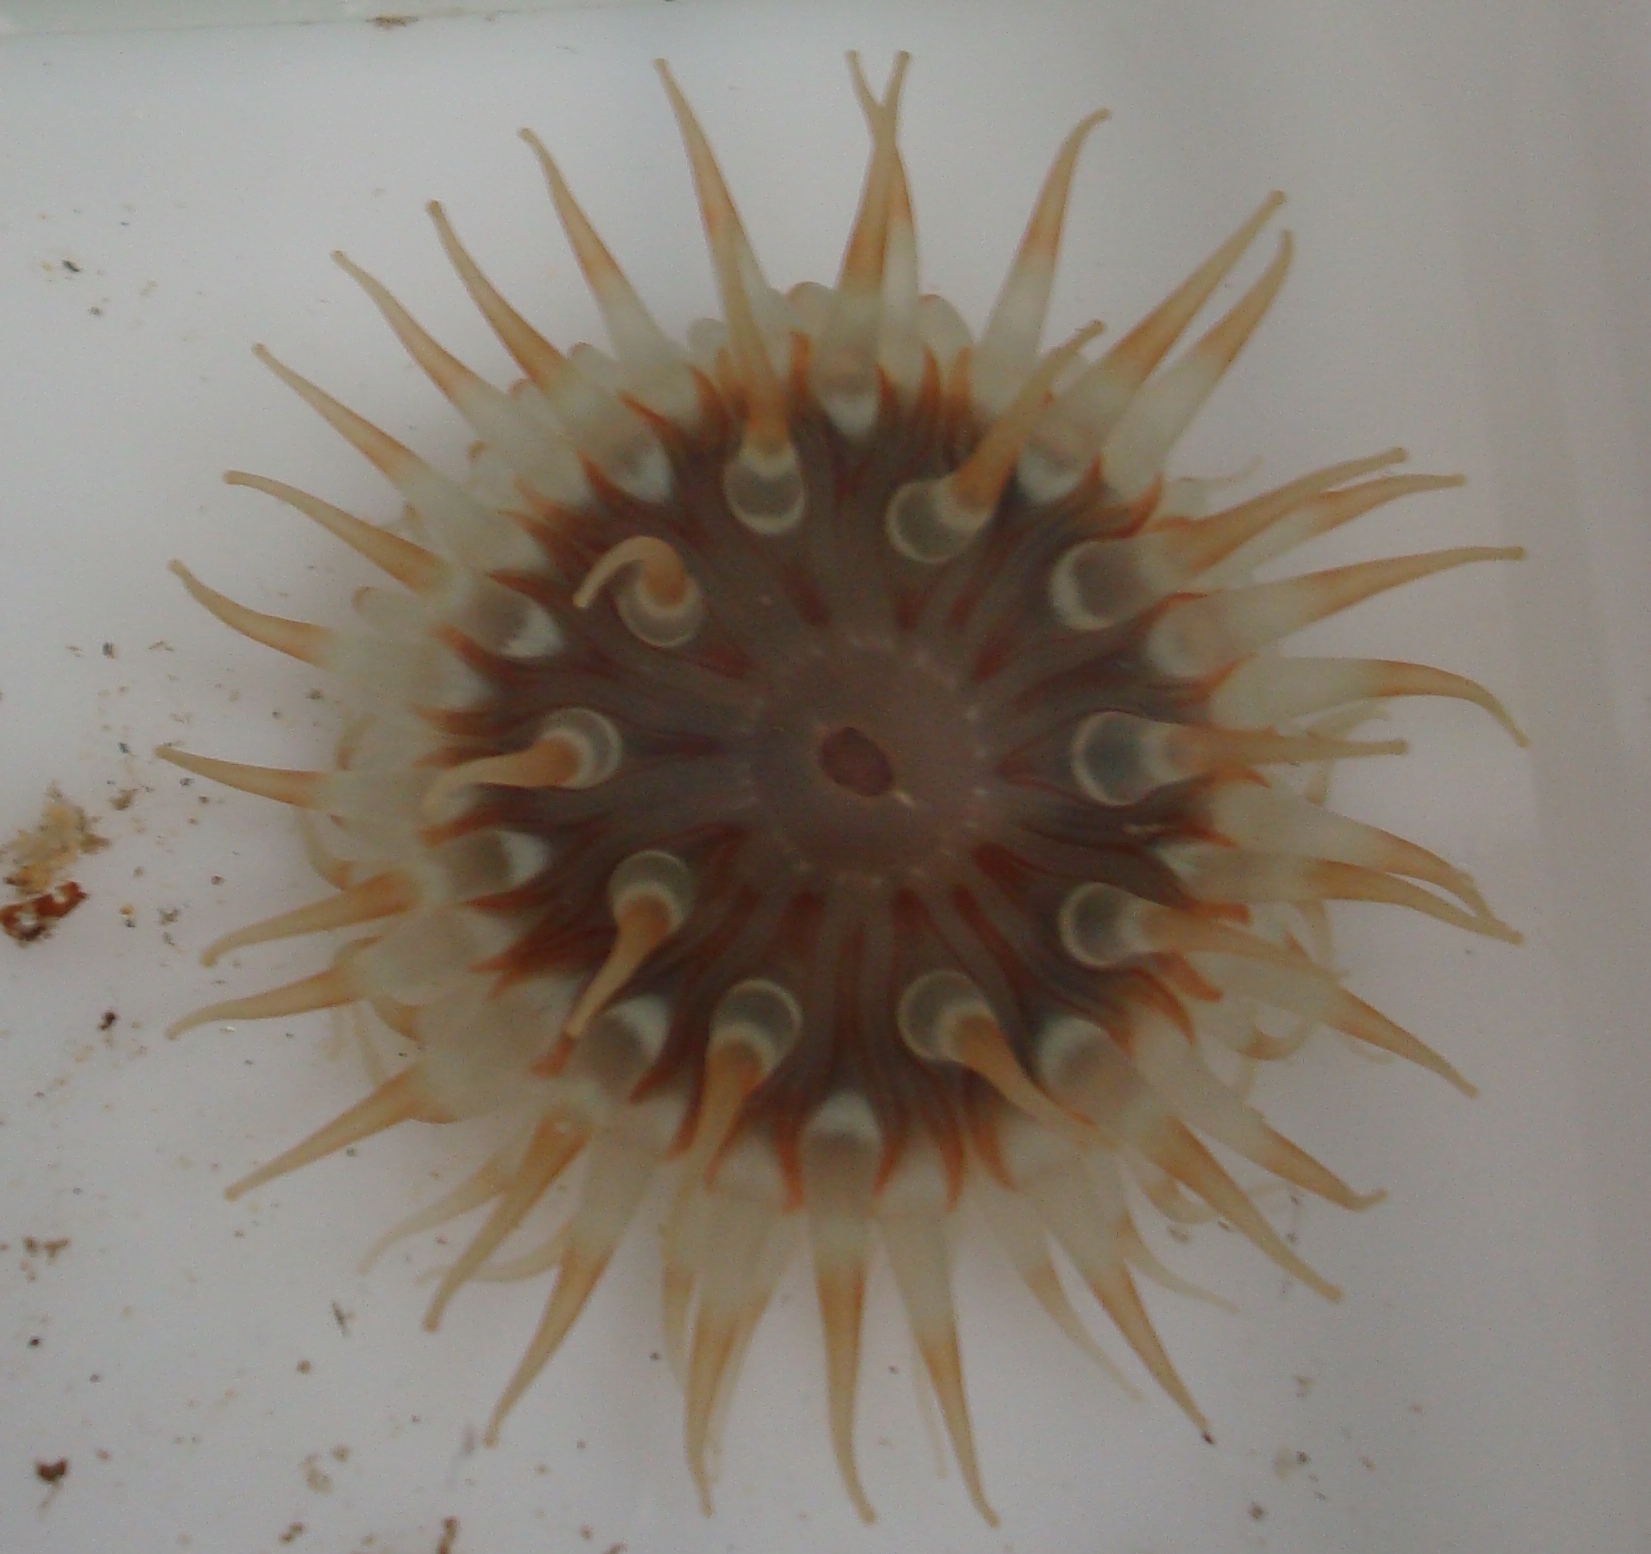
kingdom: Animalia
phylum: Cnidaria
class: Anthozoa
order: Actiniaria
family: Actiniidae
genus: Urticina
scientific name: Urticina felina
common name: Dahlia anemone
